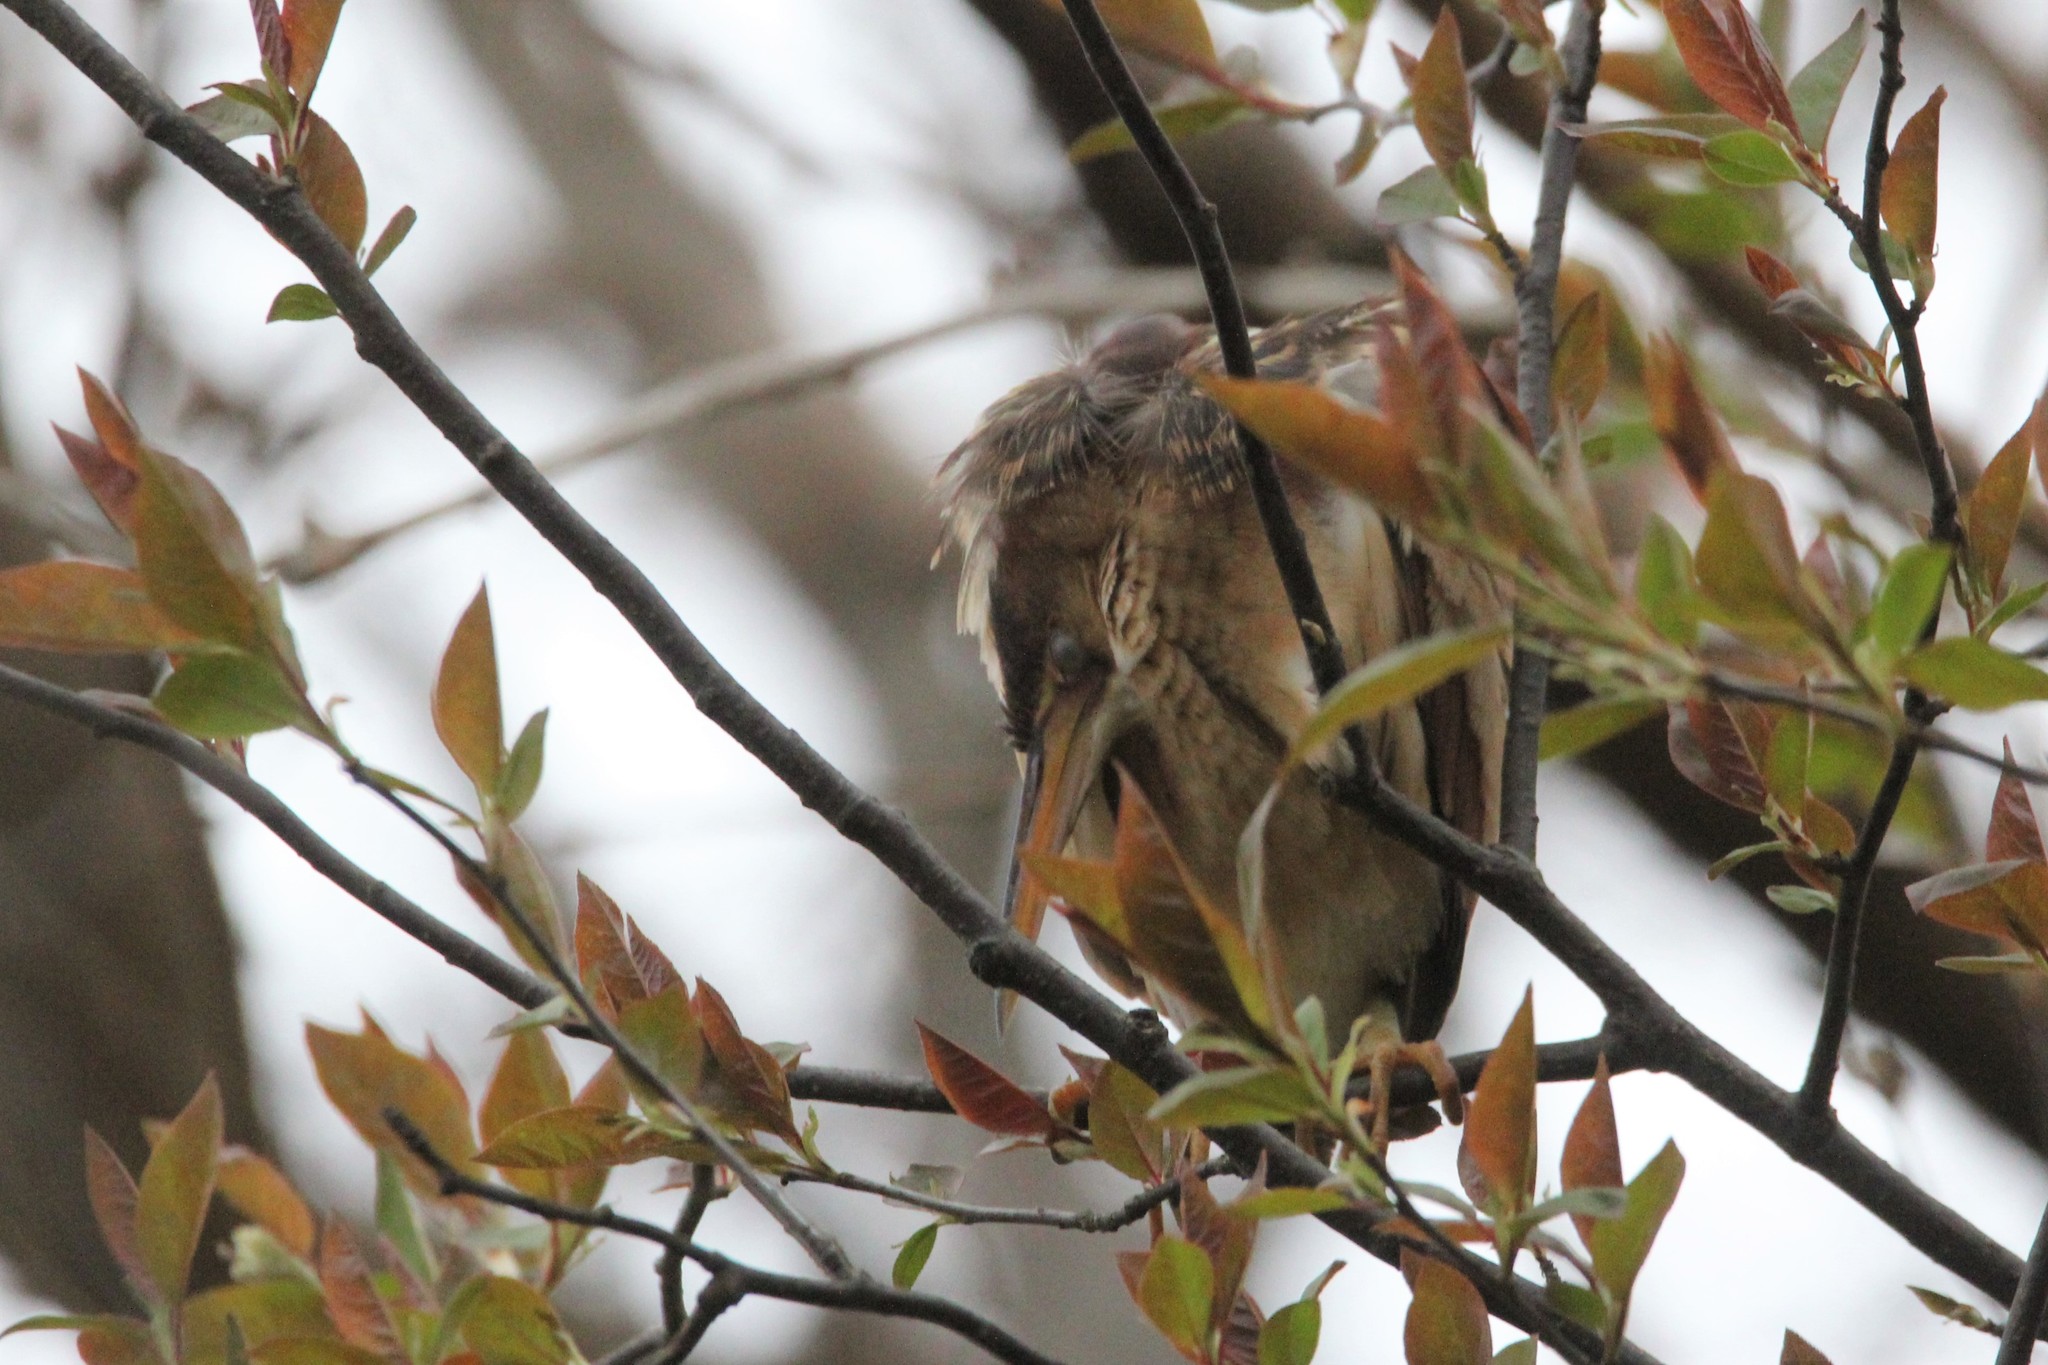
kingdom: Animalia
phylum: Chordata
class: Aves
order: Pelecaniformes
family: Ardeidae
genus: Ixobrychus
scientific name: Ixobrychus exilis
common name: Least bittern
